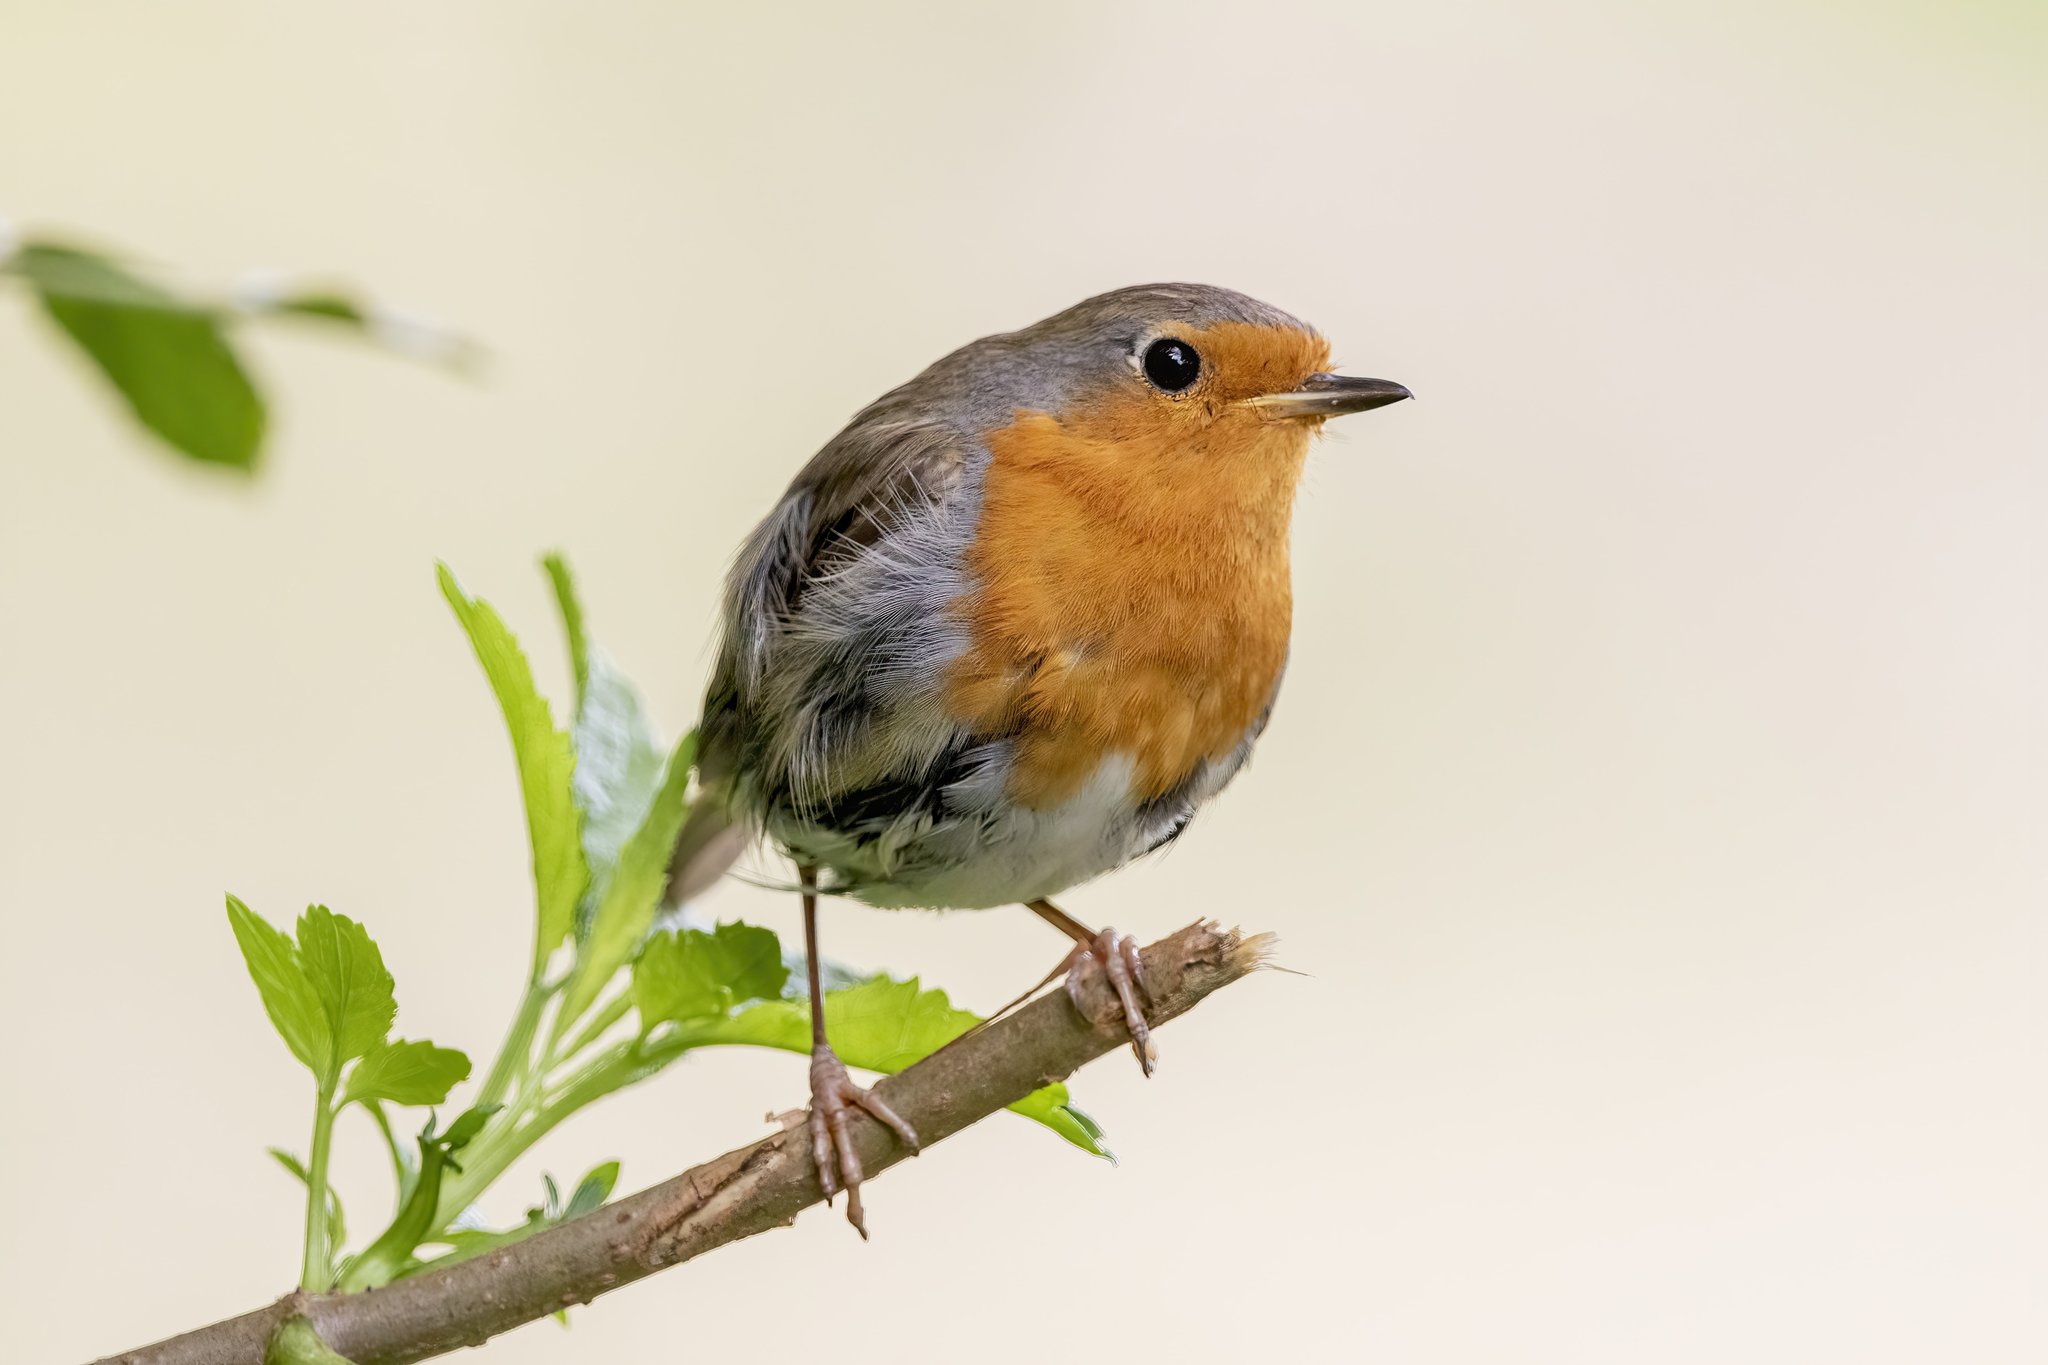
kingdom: Animalia
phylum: Chordata
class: Aves
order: Passeriformes
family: Muscicapidae
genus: Erithacus
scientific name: Erithacus rubecula
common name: European robin
